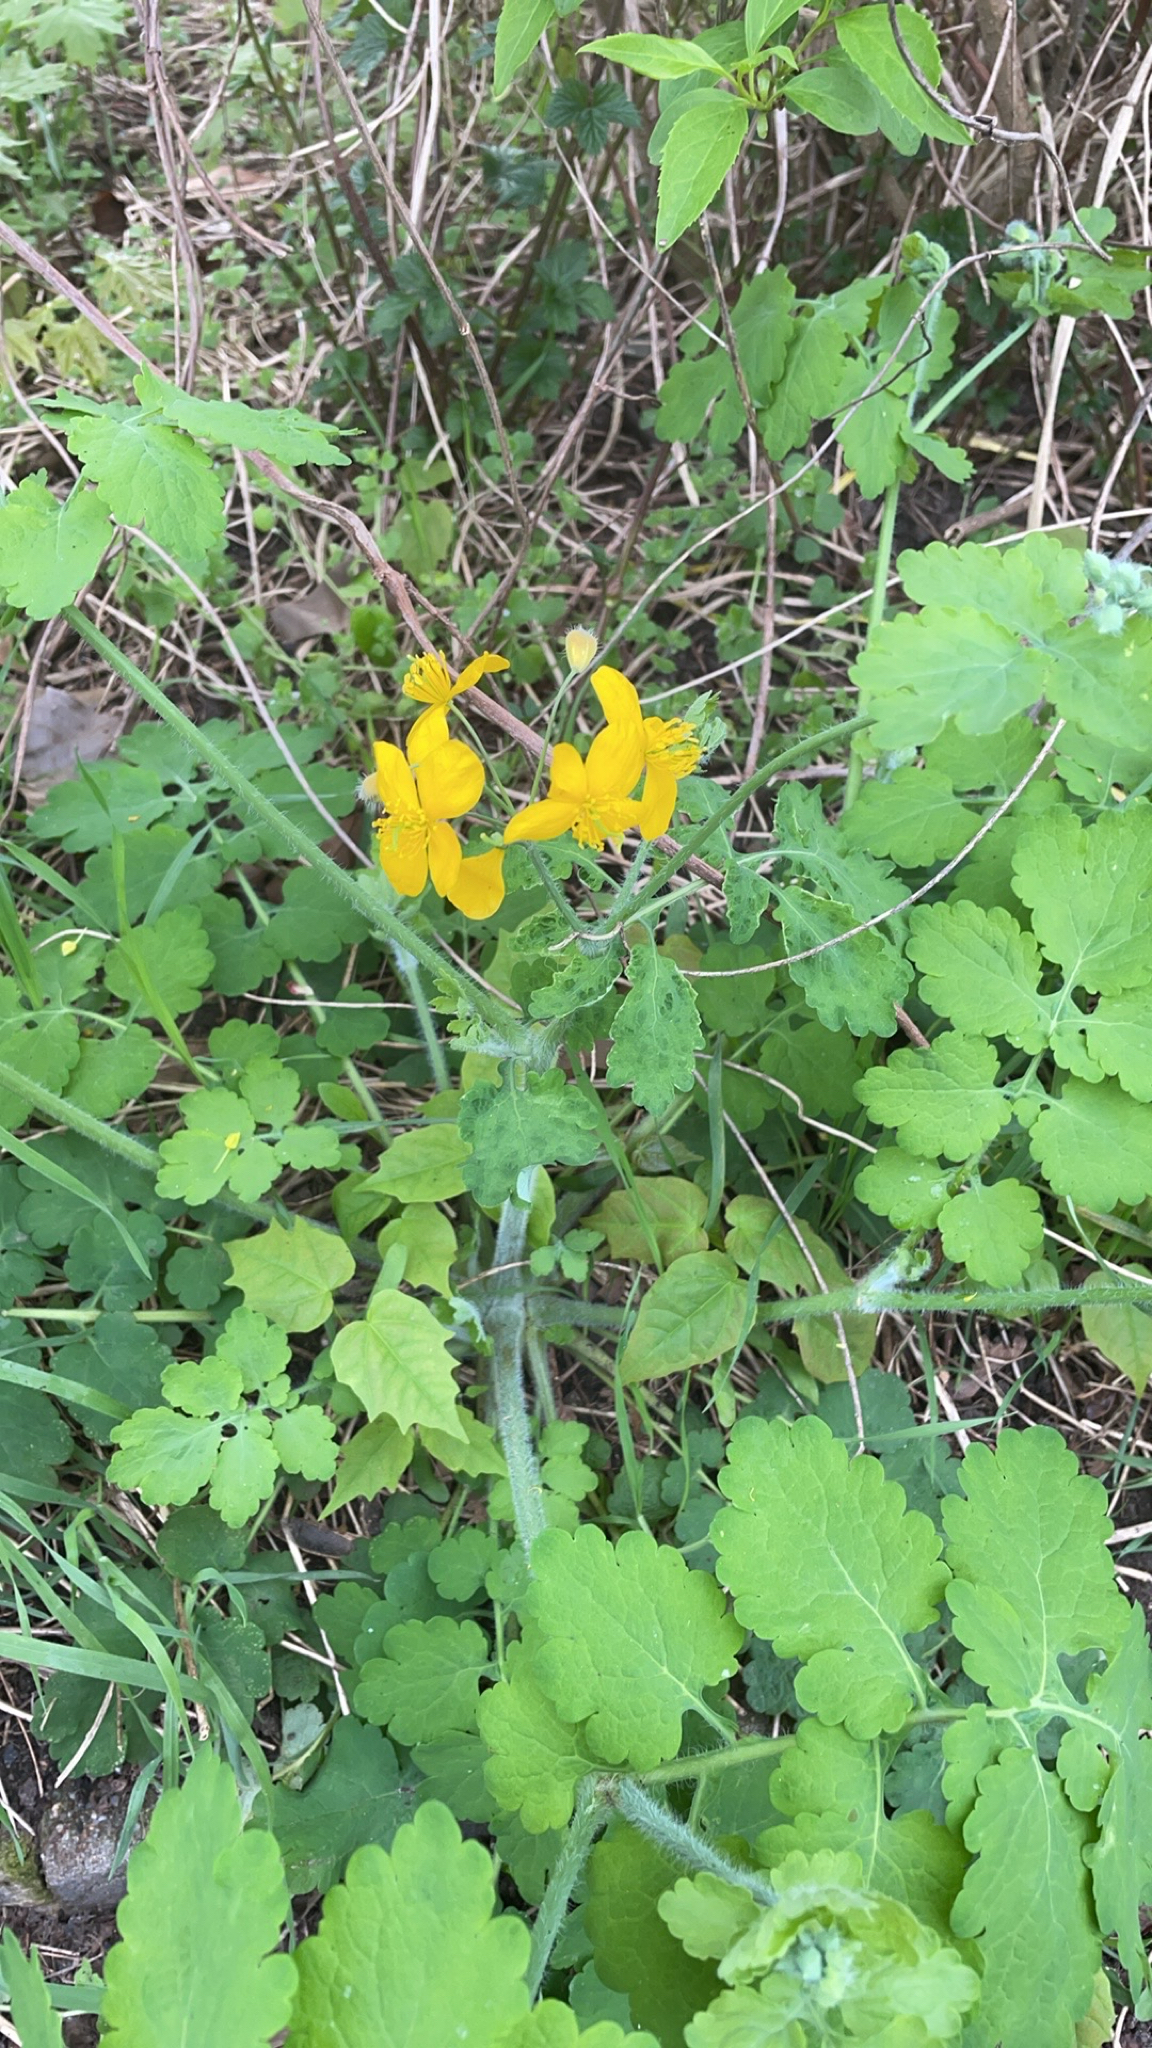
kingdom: Plantae
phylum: Tracheophyta
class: Magnoliopsida
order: Ranunculales
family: Papaveraceae
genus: Chelidonium
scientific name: Chelidonium majus
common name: Greater celandine
